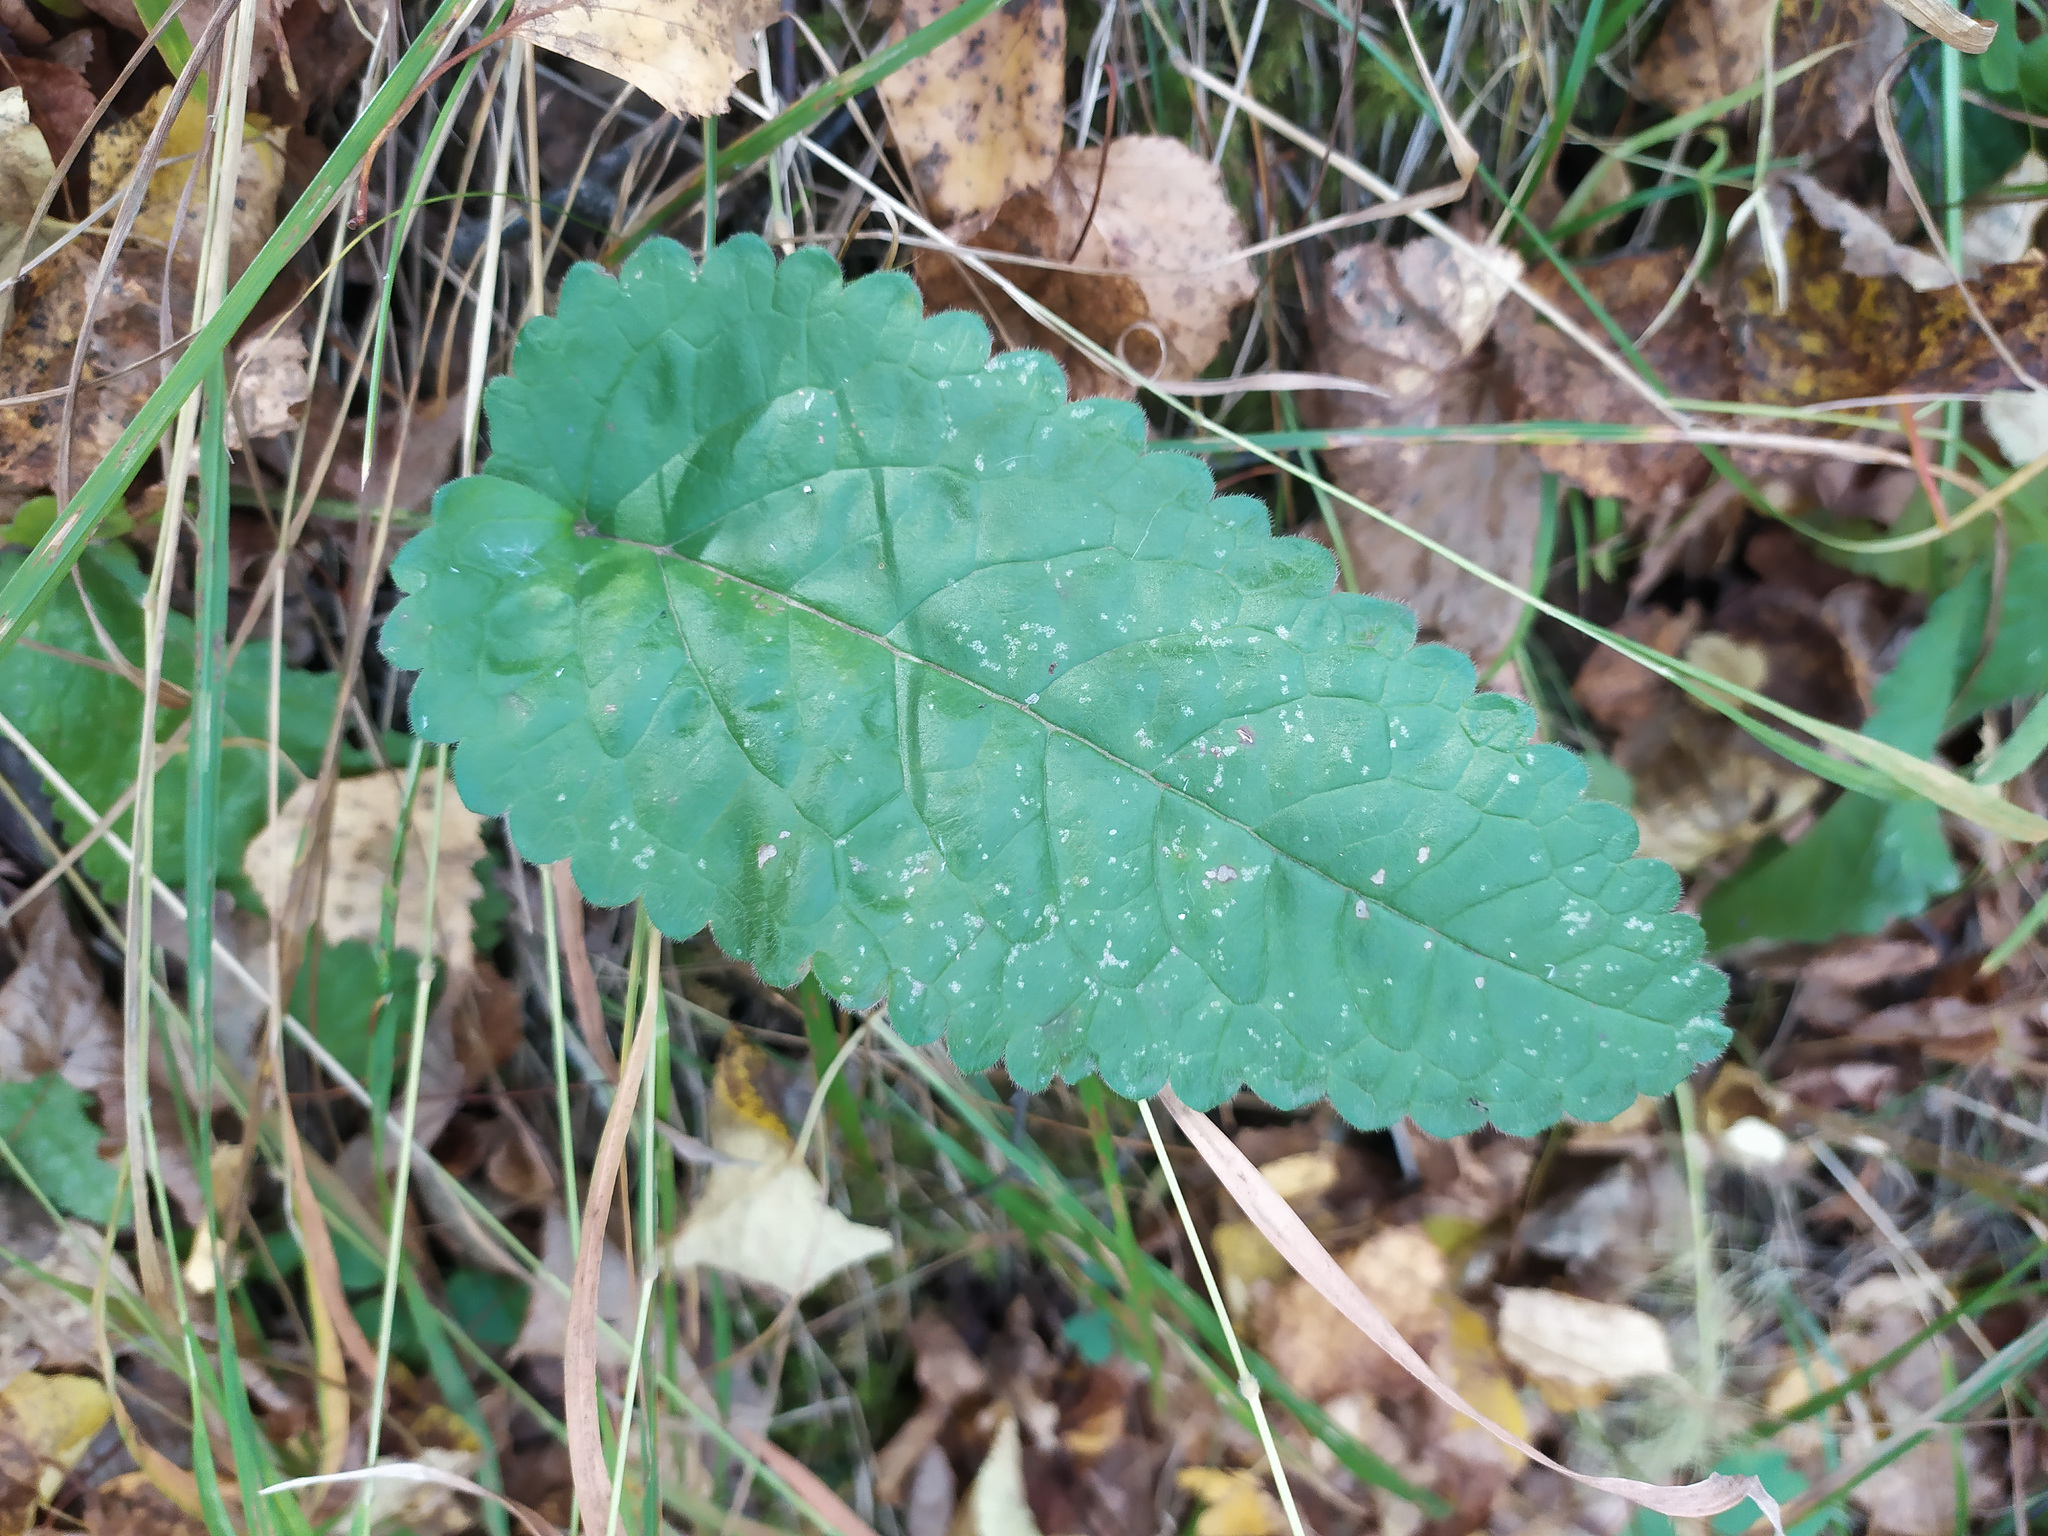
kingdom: Plantae
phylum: Tracheophyta
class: Magnoliopsida
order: Lamiales
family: Lamiaceae
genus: Betonica
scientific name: Betonica officinalis
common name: Bishop's-wort
